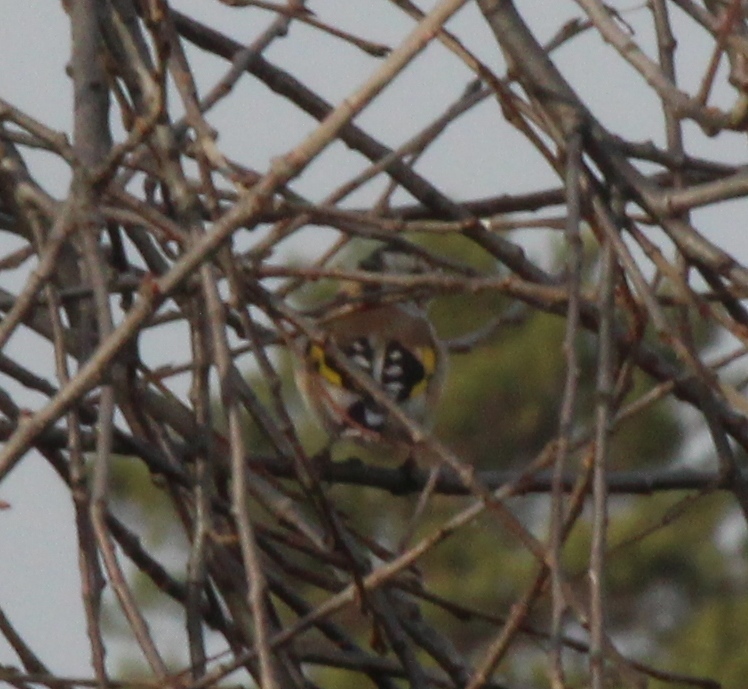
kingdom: Animalia
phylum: Chordata
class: Aves
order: Passeriformes
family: Fringillidae
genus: Carduelis
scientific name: Carduelis carduelis
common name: European goldfinch
